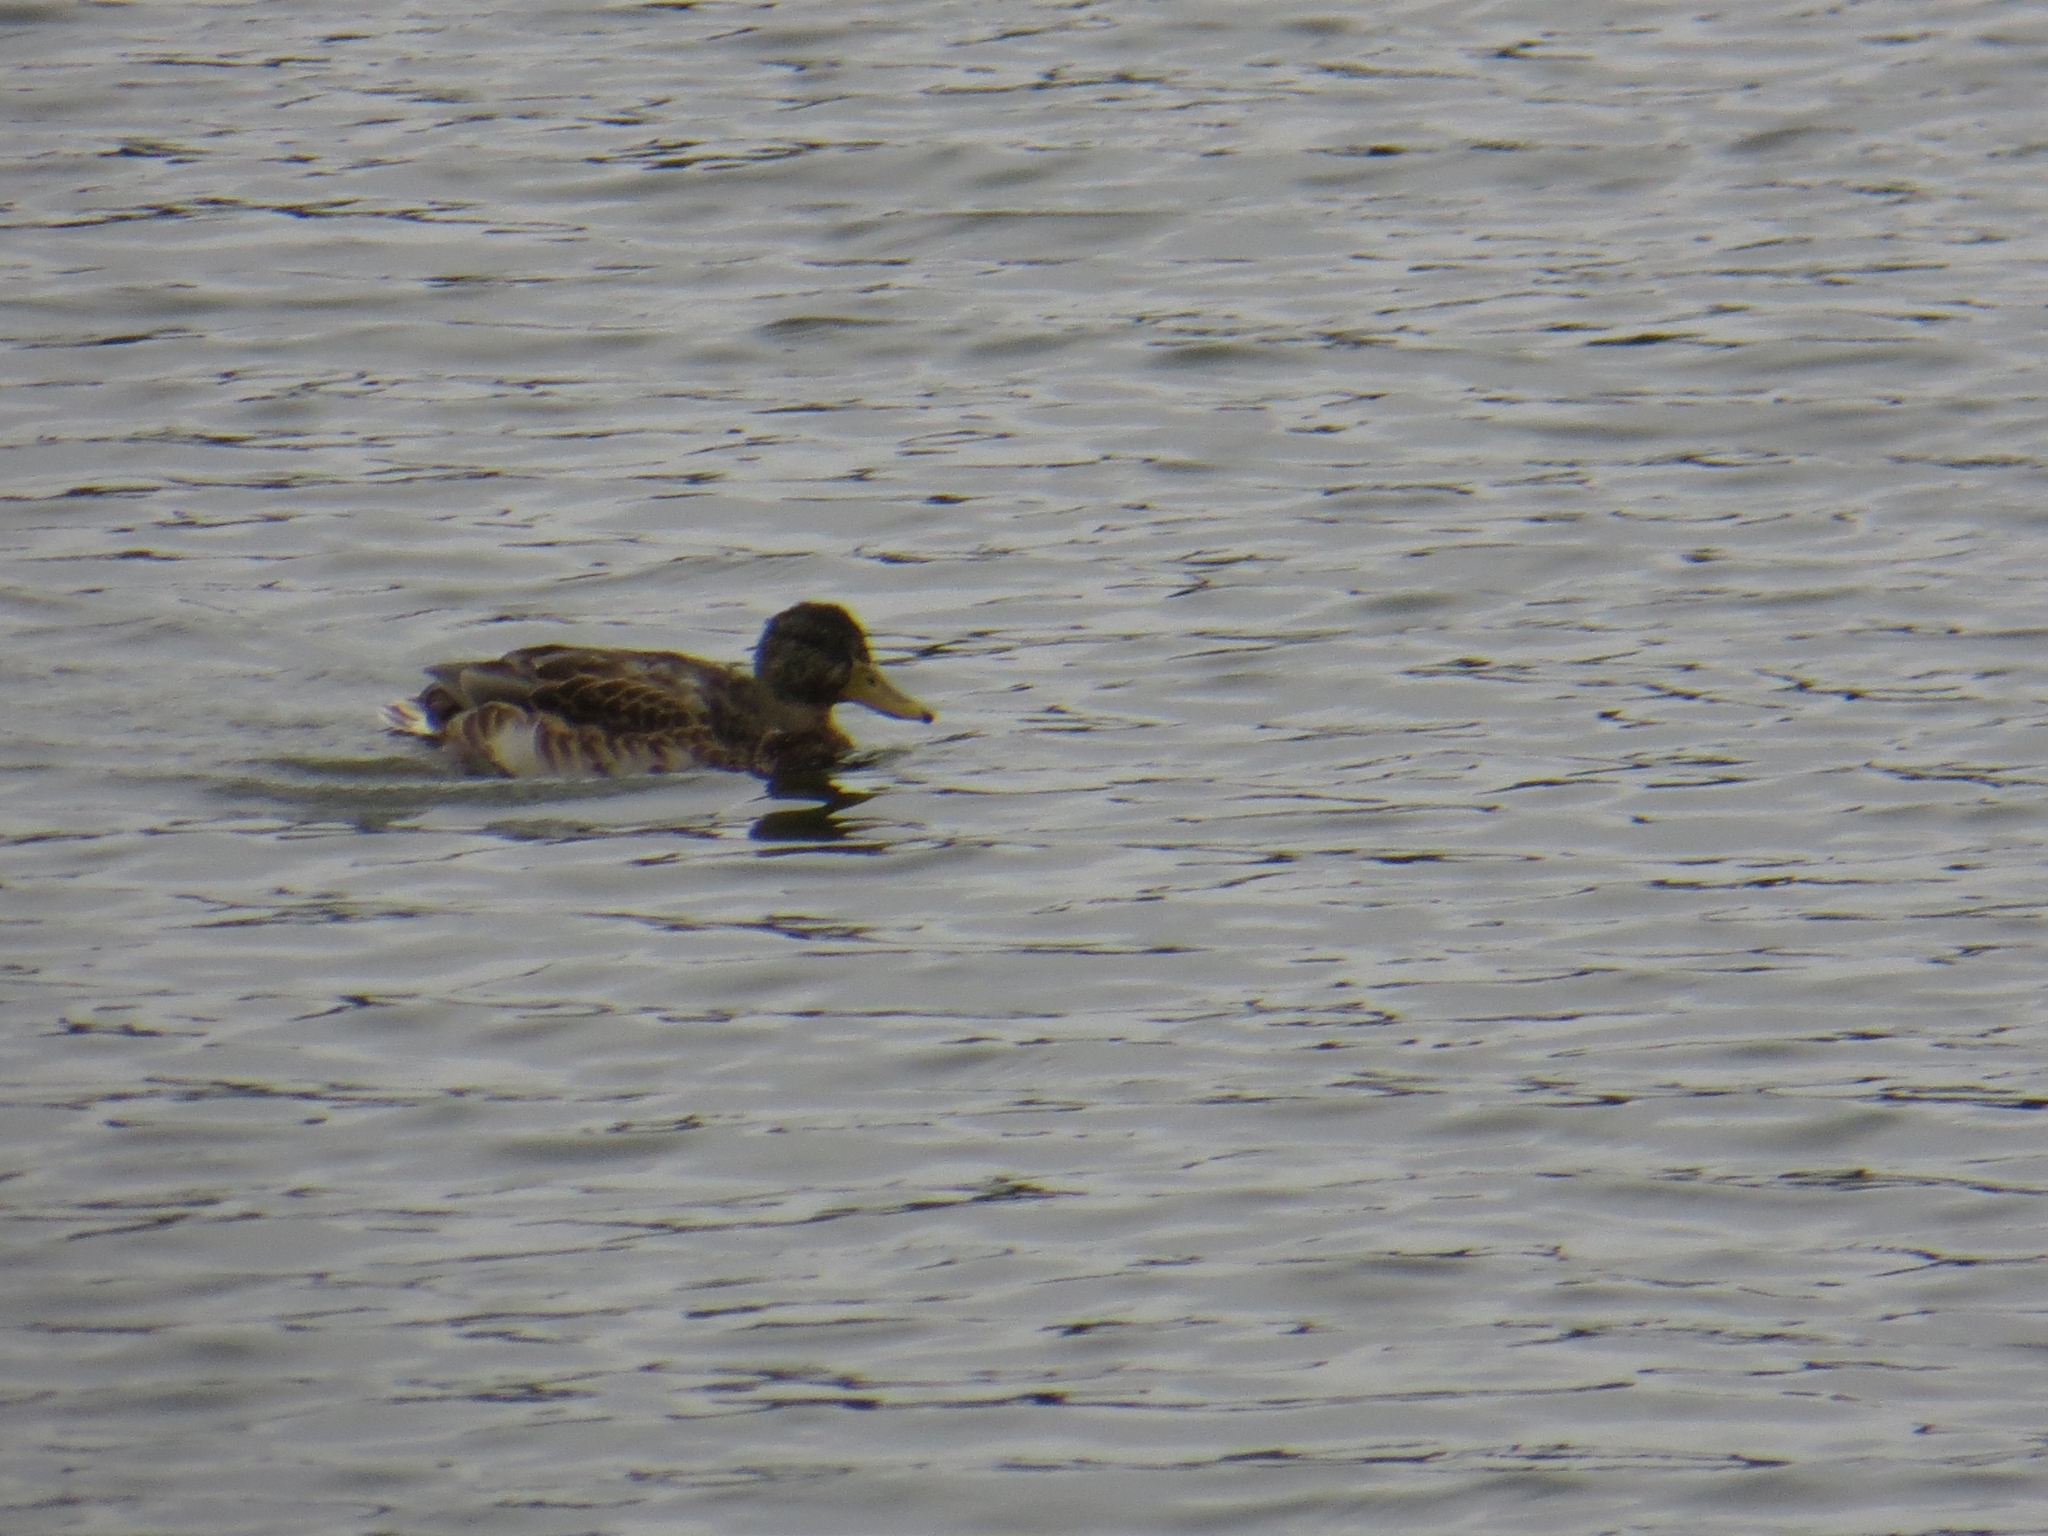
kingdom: Animalia
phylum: Chordata
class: Aves
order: Anseriformes
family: Anatidae
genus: Anas
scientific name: Anas platyrhynchos
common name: Mallard
